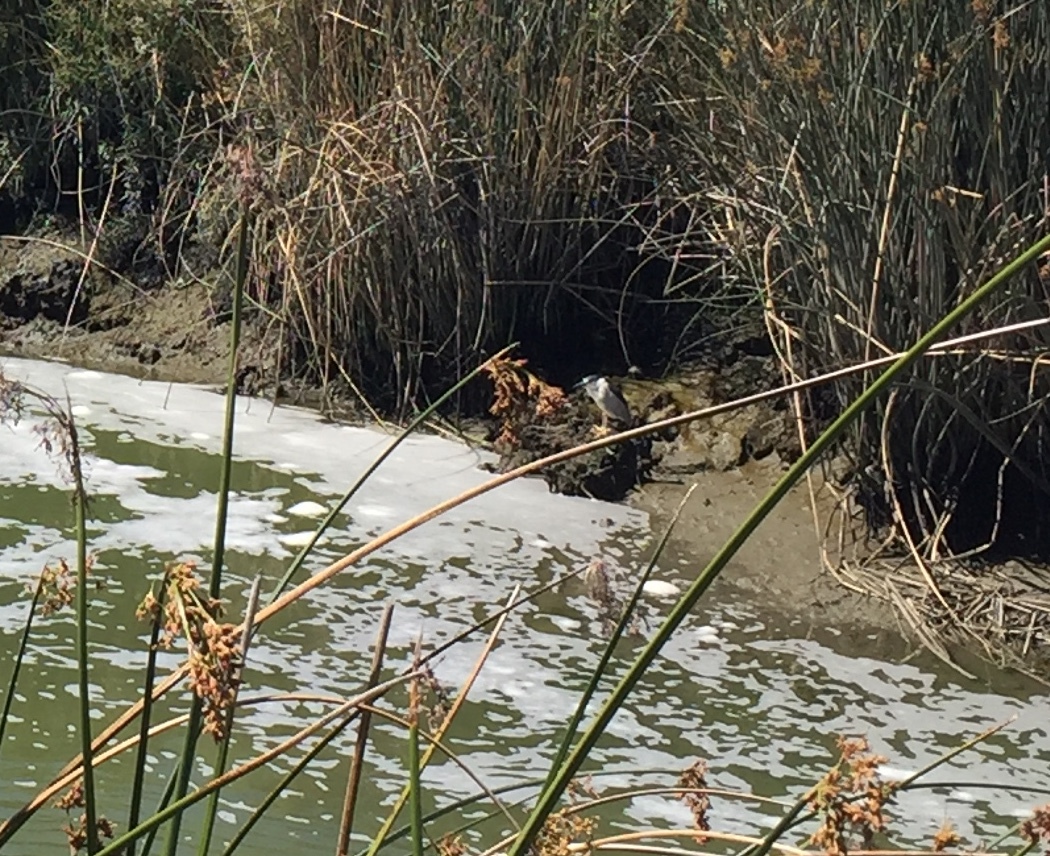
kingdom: Animalia
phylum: Chordata
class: Aves
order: Pelecaniformes
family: Ardeidae
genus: Nycticorax
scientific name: Nycticorax nycticorax
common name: Black-crowned night heron
